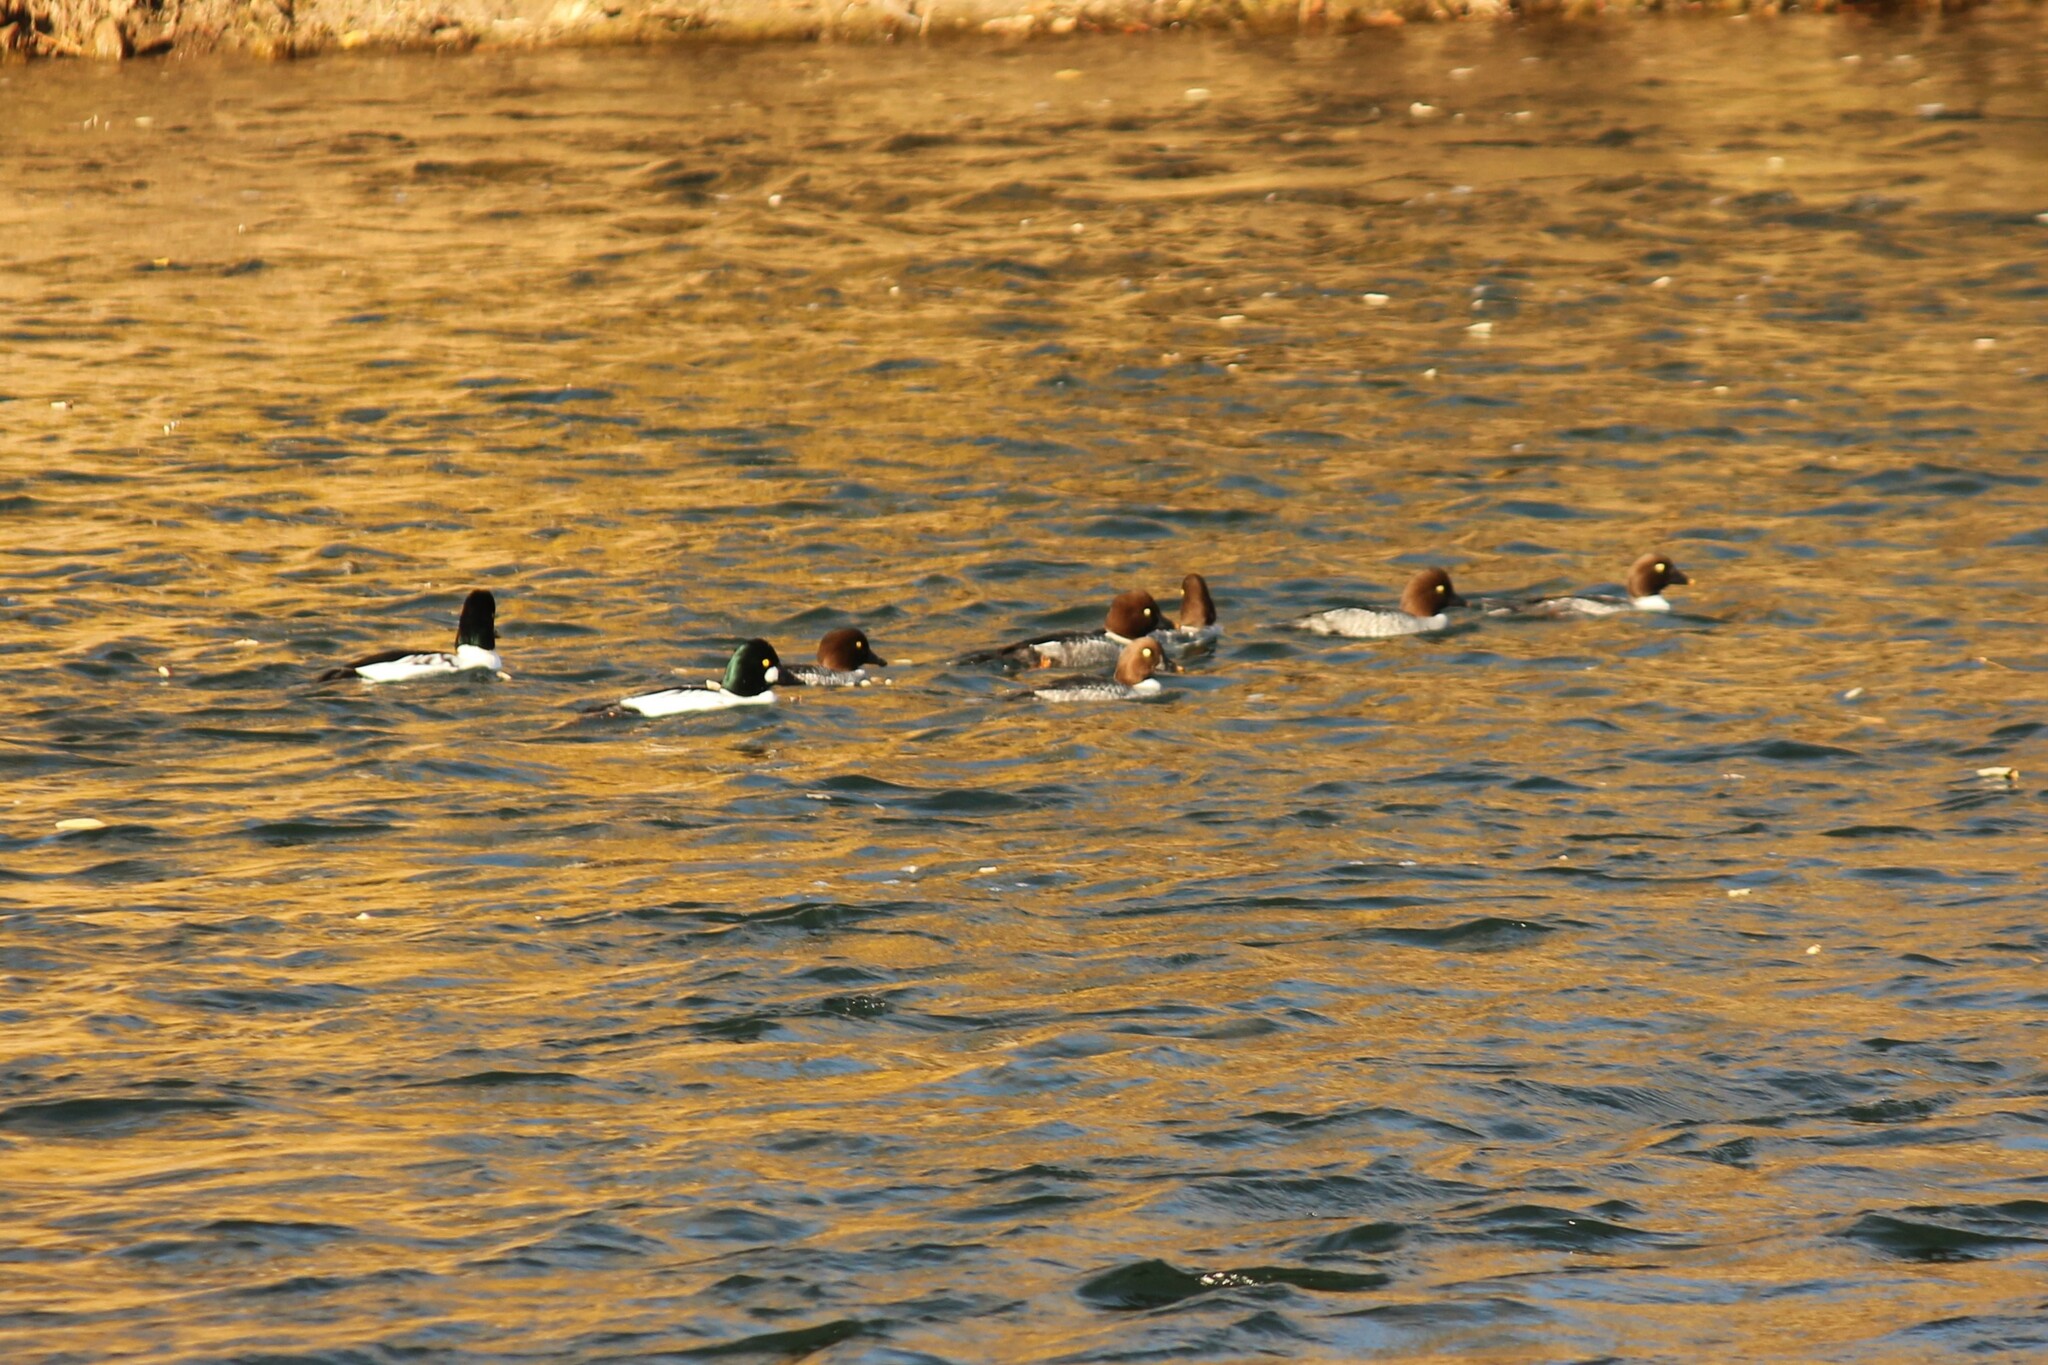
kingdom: Animalia
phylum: Chordata
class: Aves
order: Anseriformes
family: Anatidae
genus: Bucephala
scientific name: Bucephala clangula
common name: Common goldeneye
